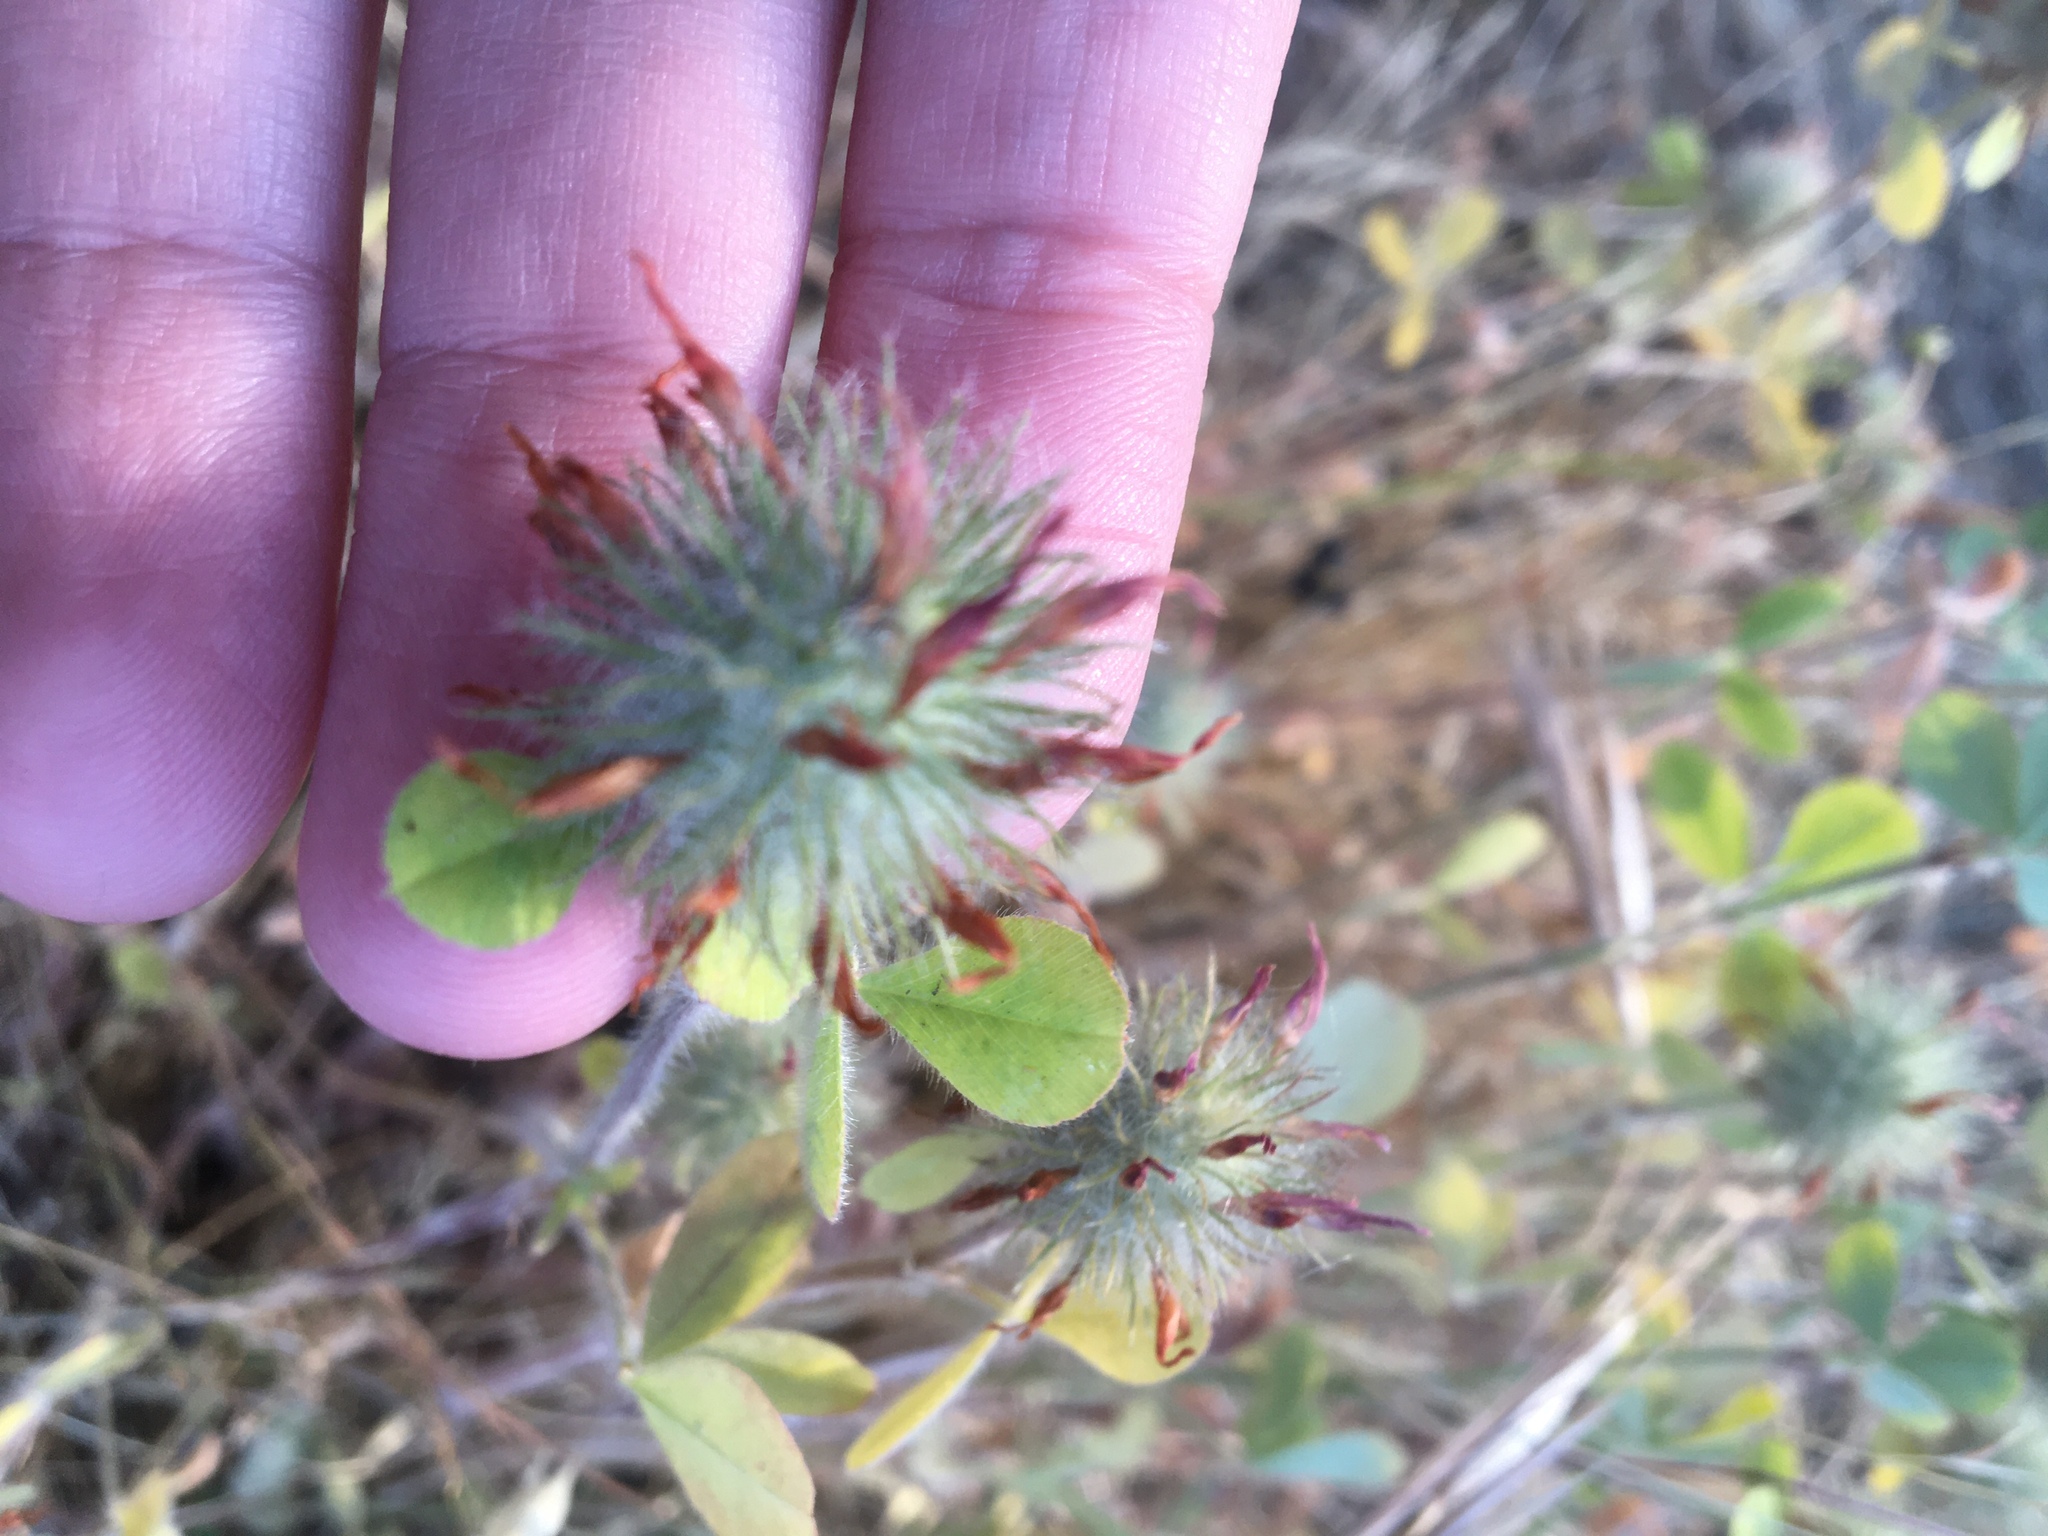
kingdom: Plantae
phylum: Tracheophyta
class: Magnoliopsida
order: Fabales
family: Fabaceae
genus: Trifolium
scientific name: Trifolium hirtum
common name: Rose clover
